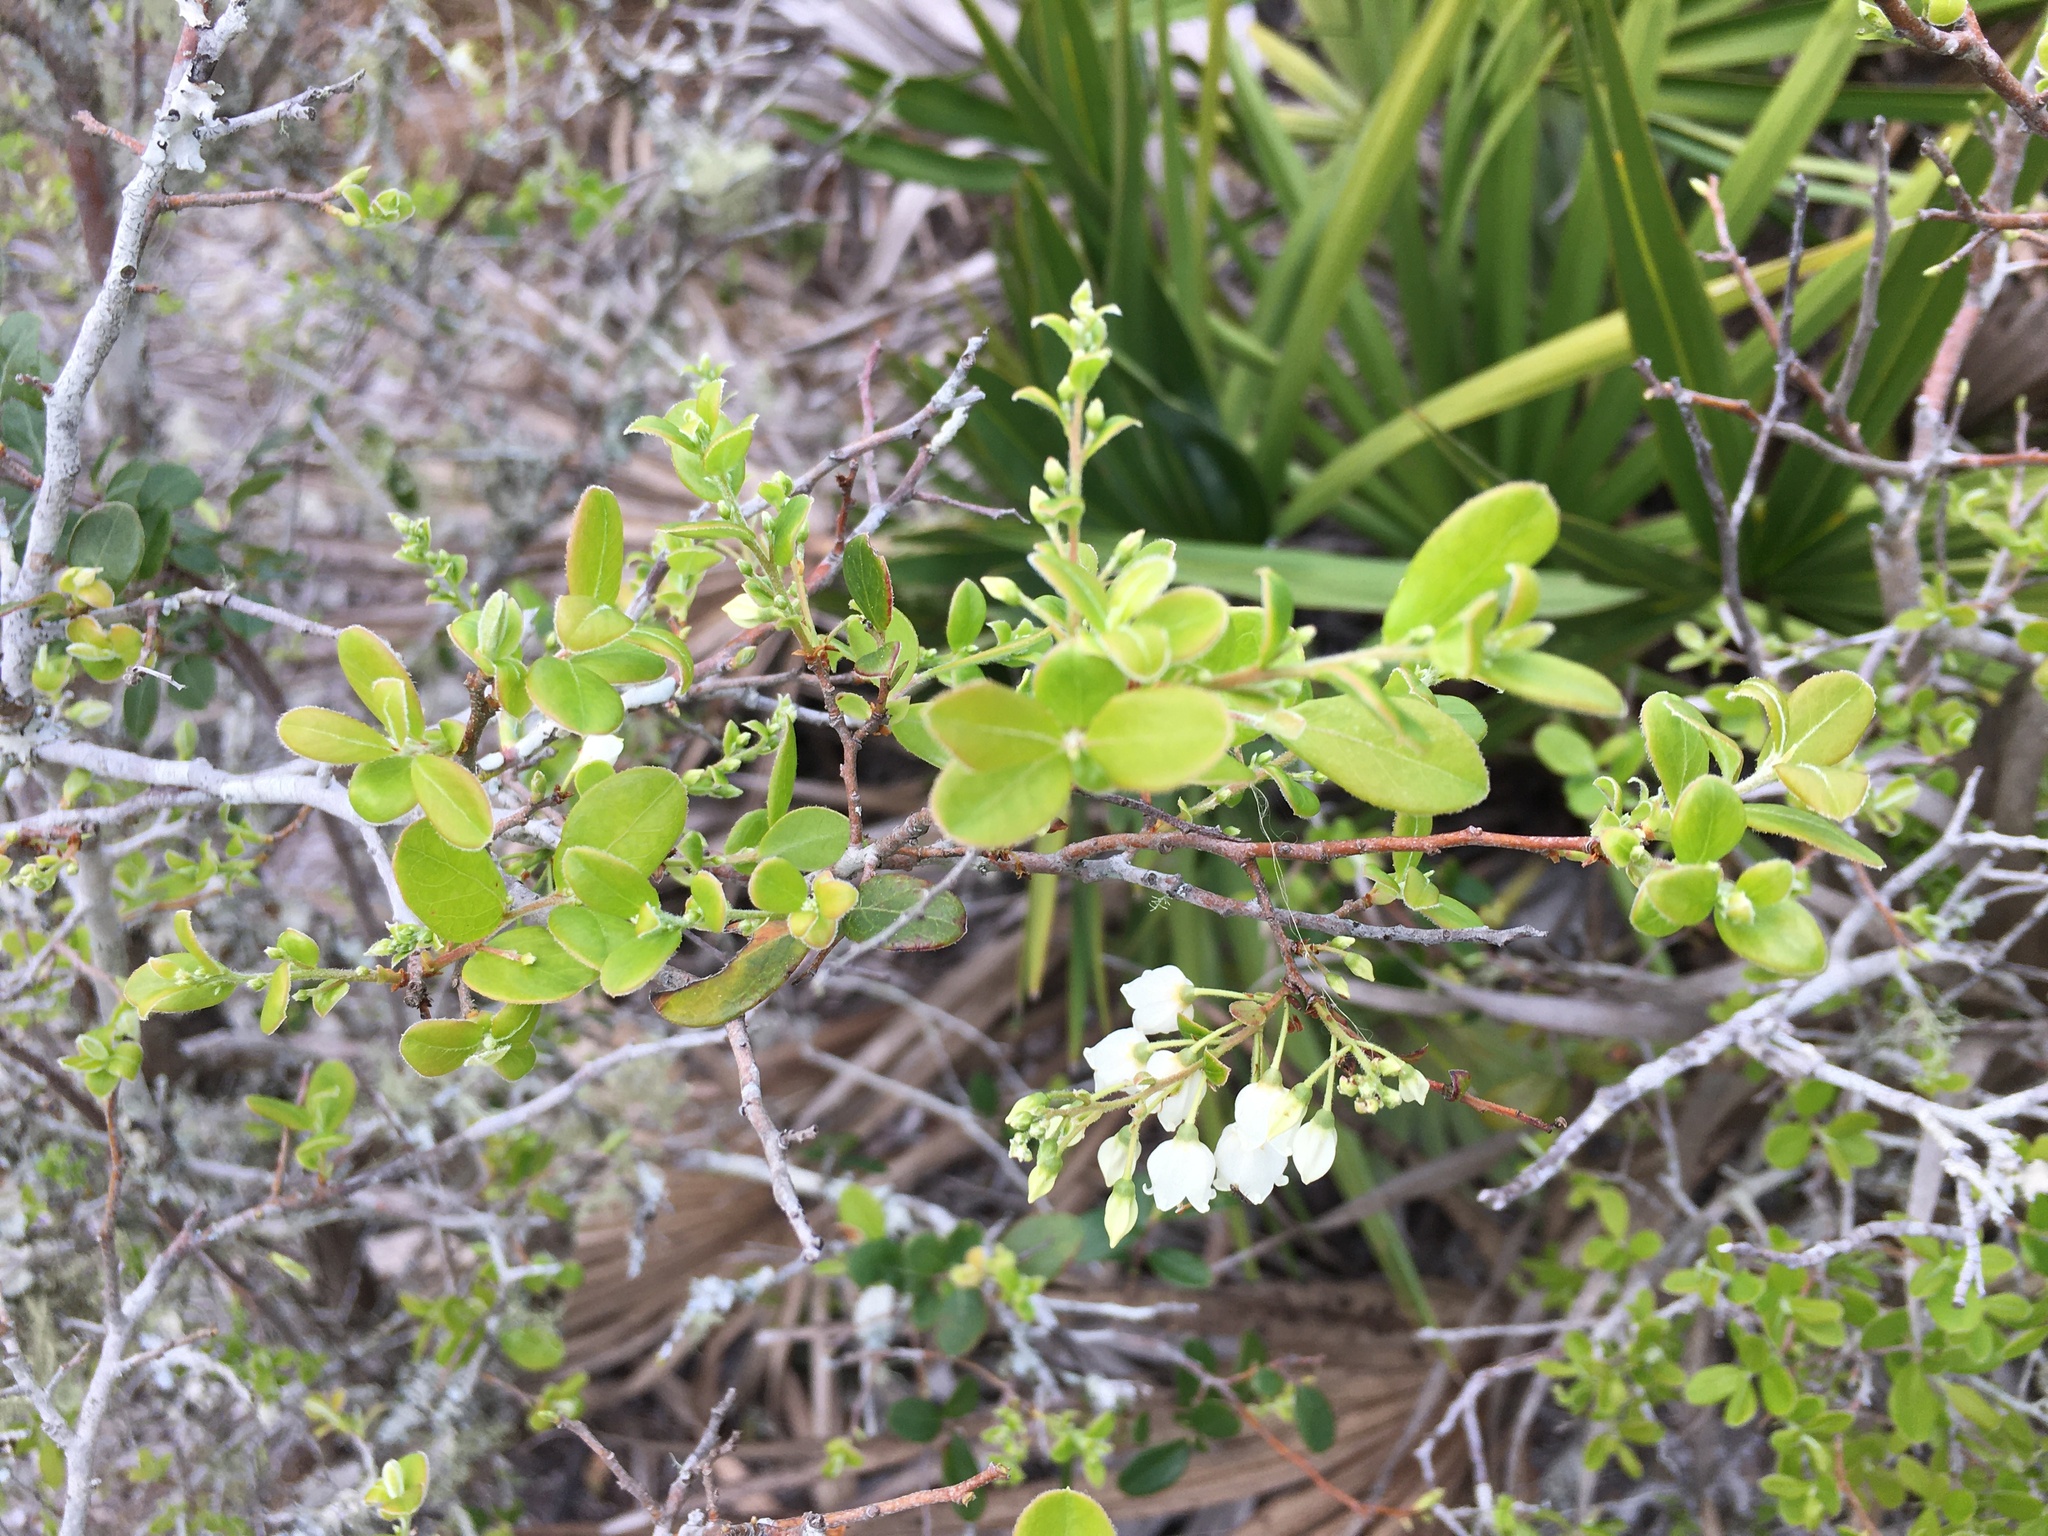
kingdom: Plantae
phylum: Tracheophyta
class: Magnoliopsida
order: Ericales
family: Ericaceae
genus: Vaccinium
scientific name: Vaccinium arboreum
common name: Farkleberry
